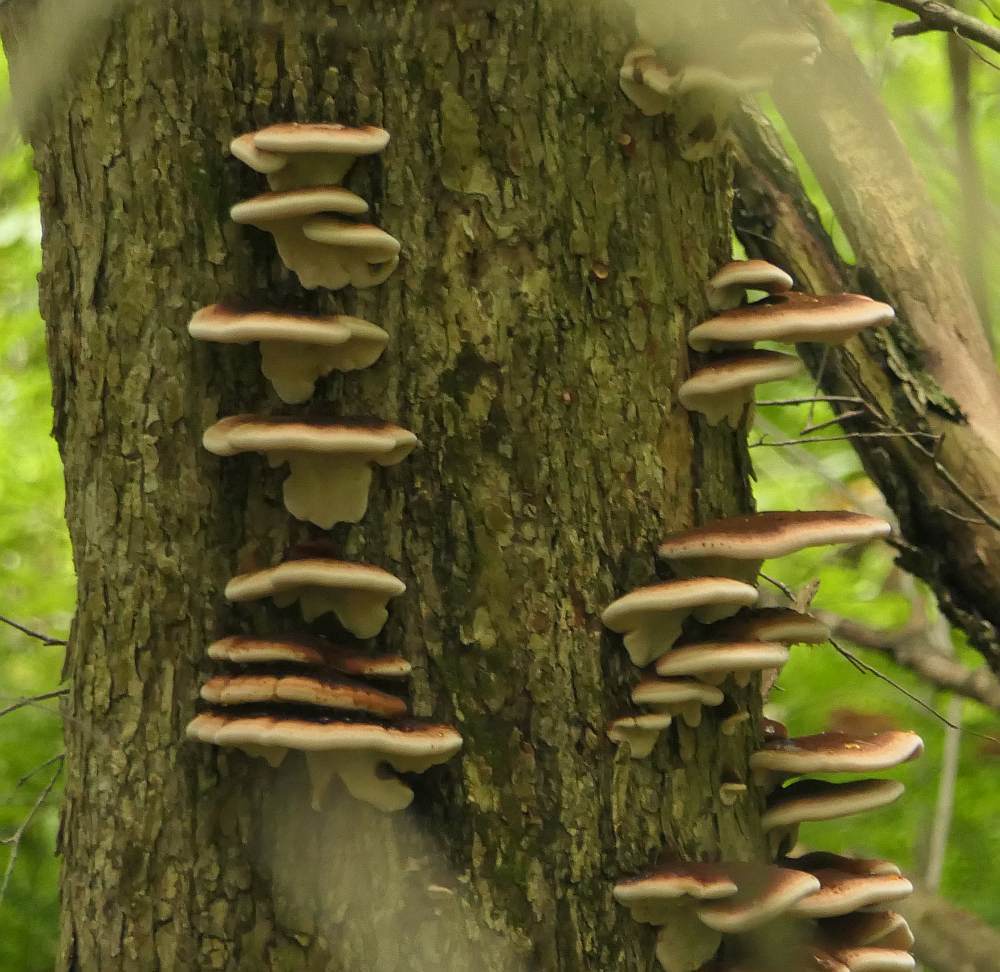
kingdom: Fungi
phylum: Basidiomycota
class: Agaricomycetes
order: Polyporales
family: Ischnodermataceae
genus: Ischnoderma
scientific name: Ischnoderma resinosum
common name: Resinous polypore
